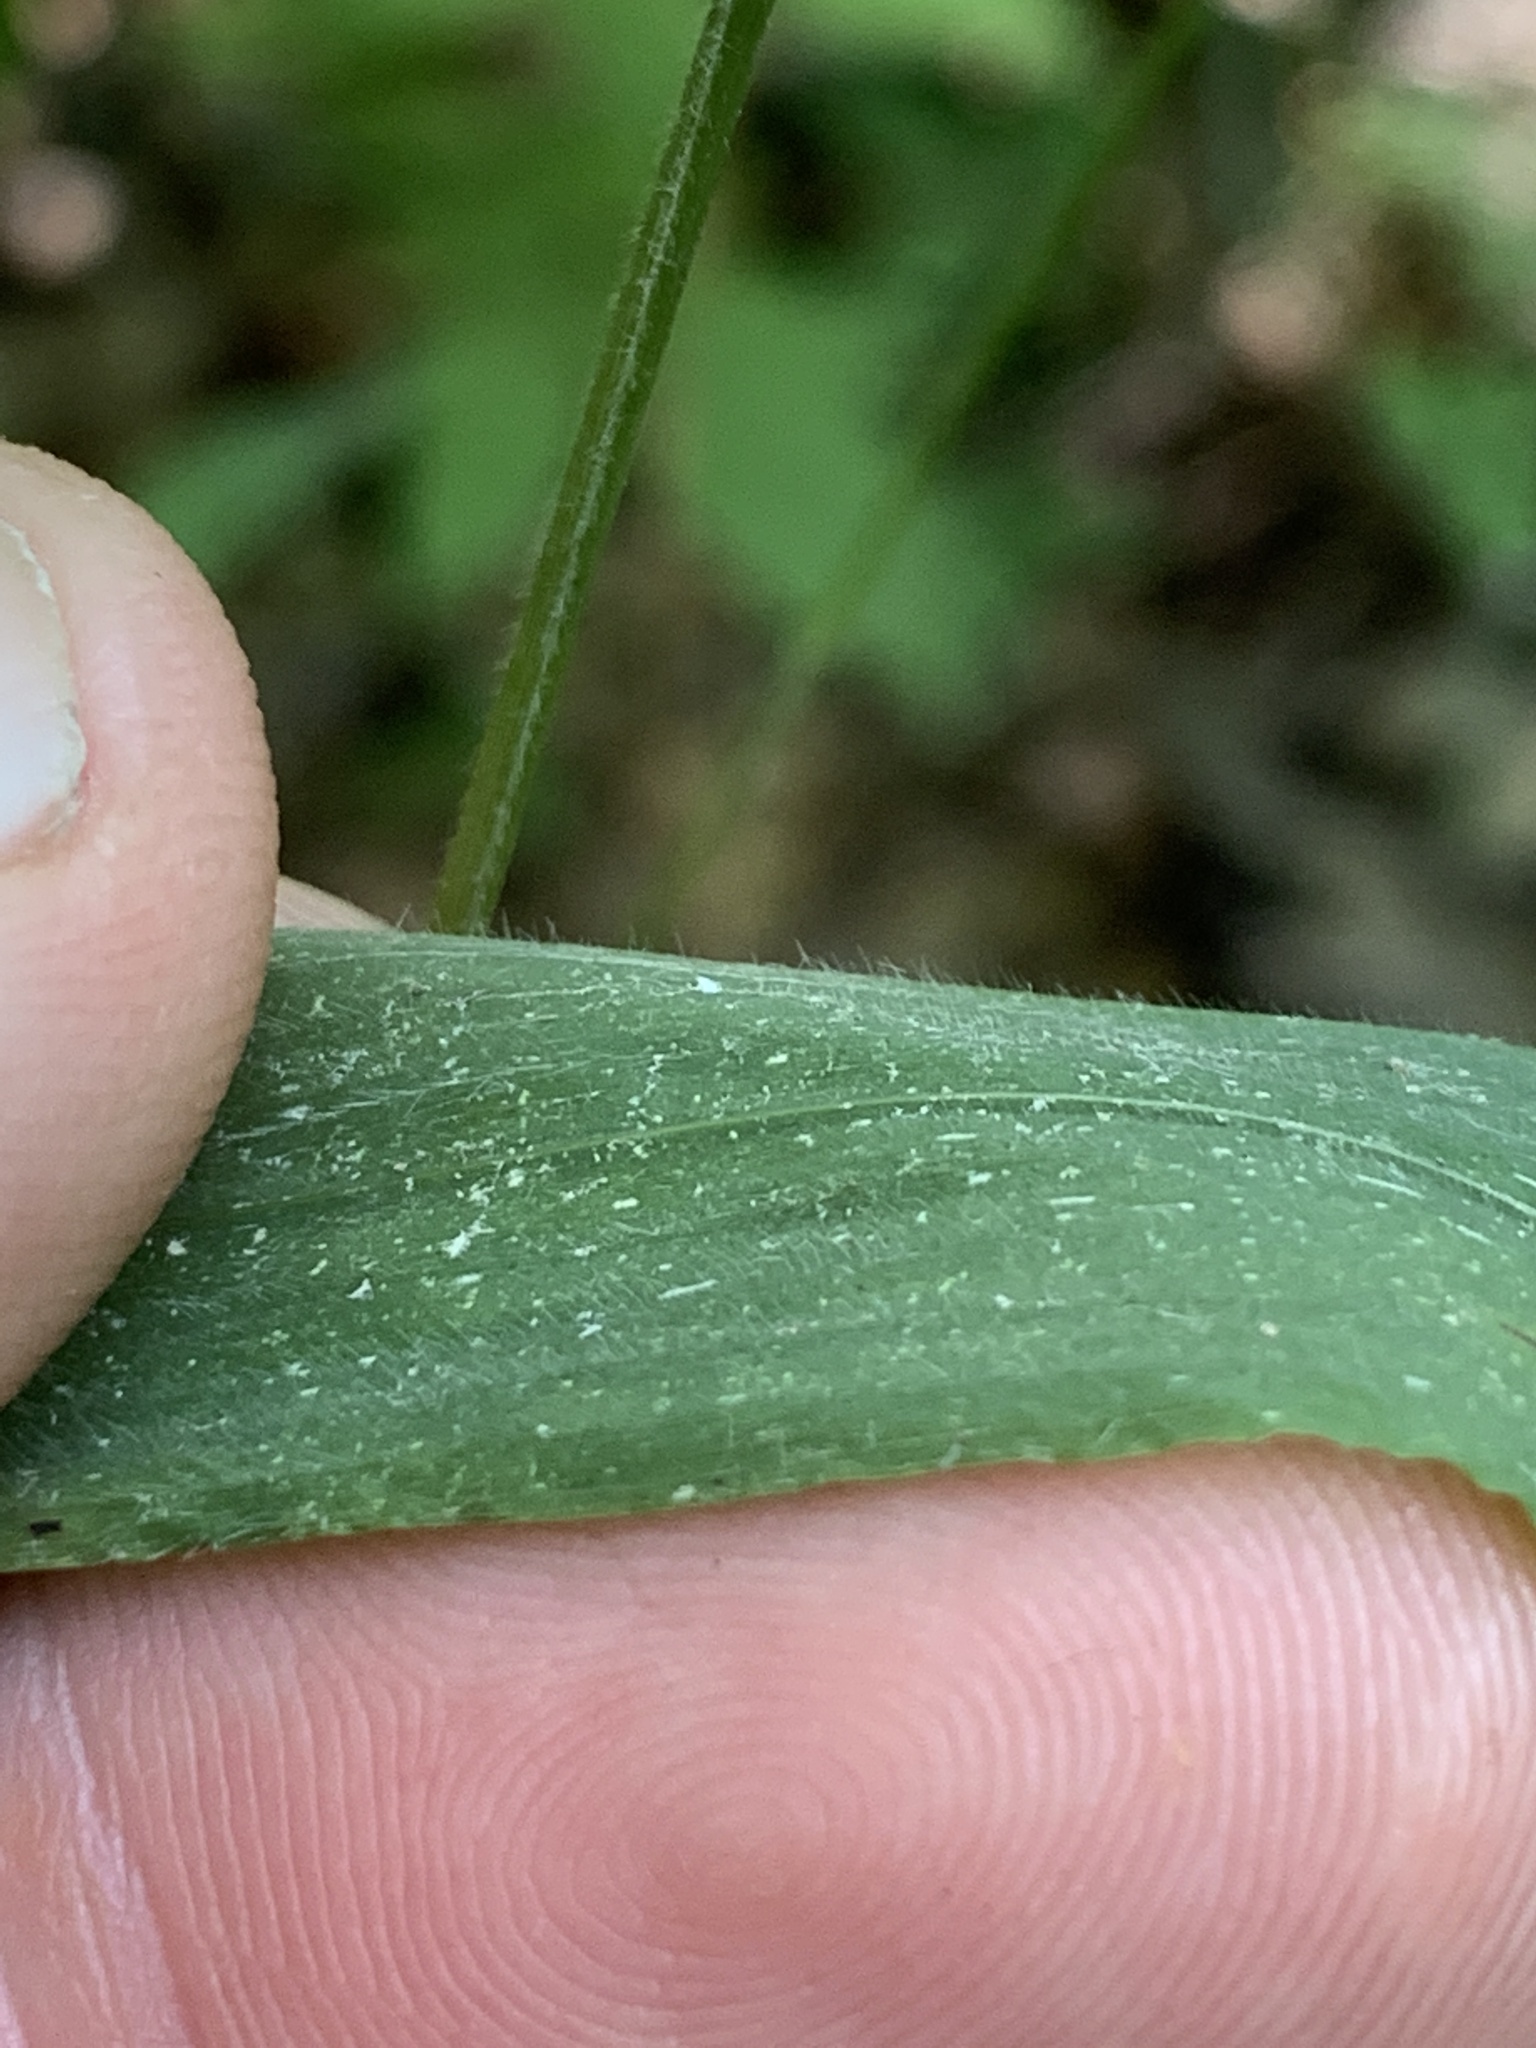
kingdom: Plantae
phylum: Tracheophyta
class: Liliopsida
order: Poales
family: Poaceae
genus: Brachyelytrum
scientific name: Brachyelytrum erectum
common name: Bearded shorthusk
